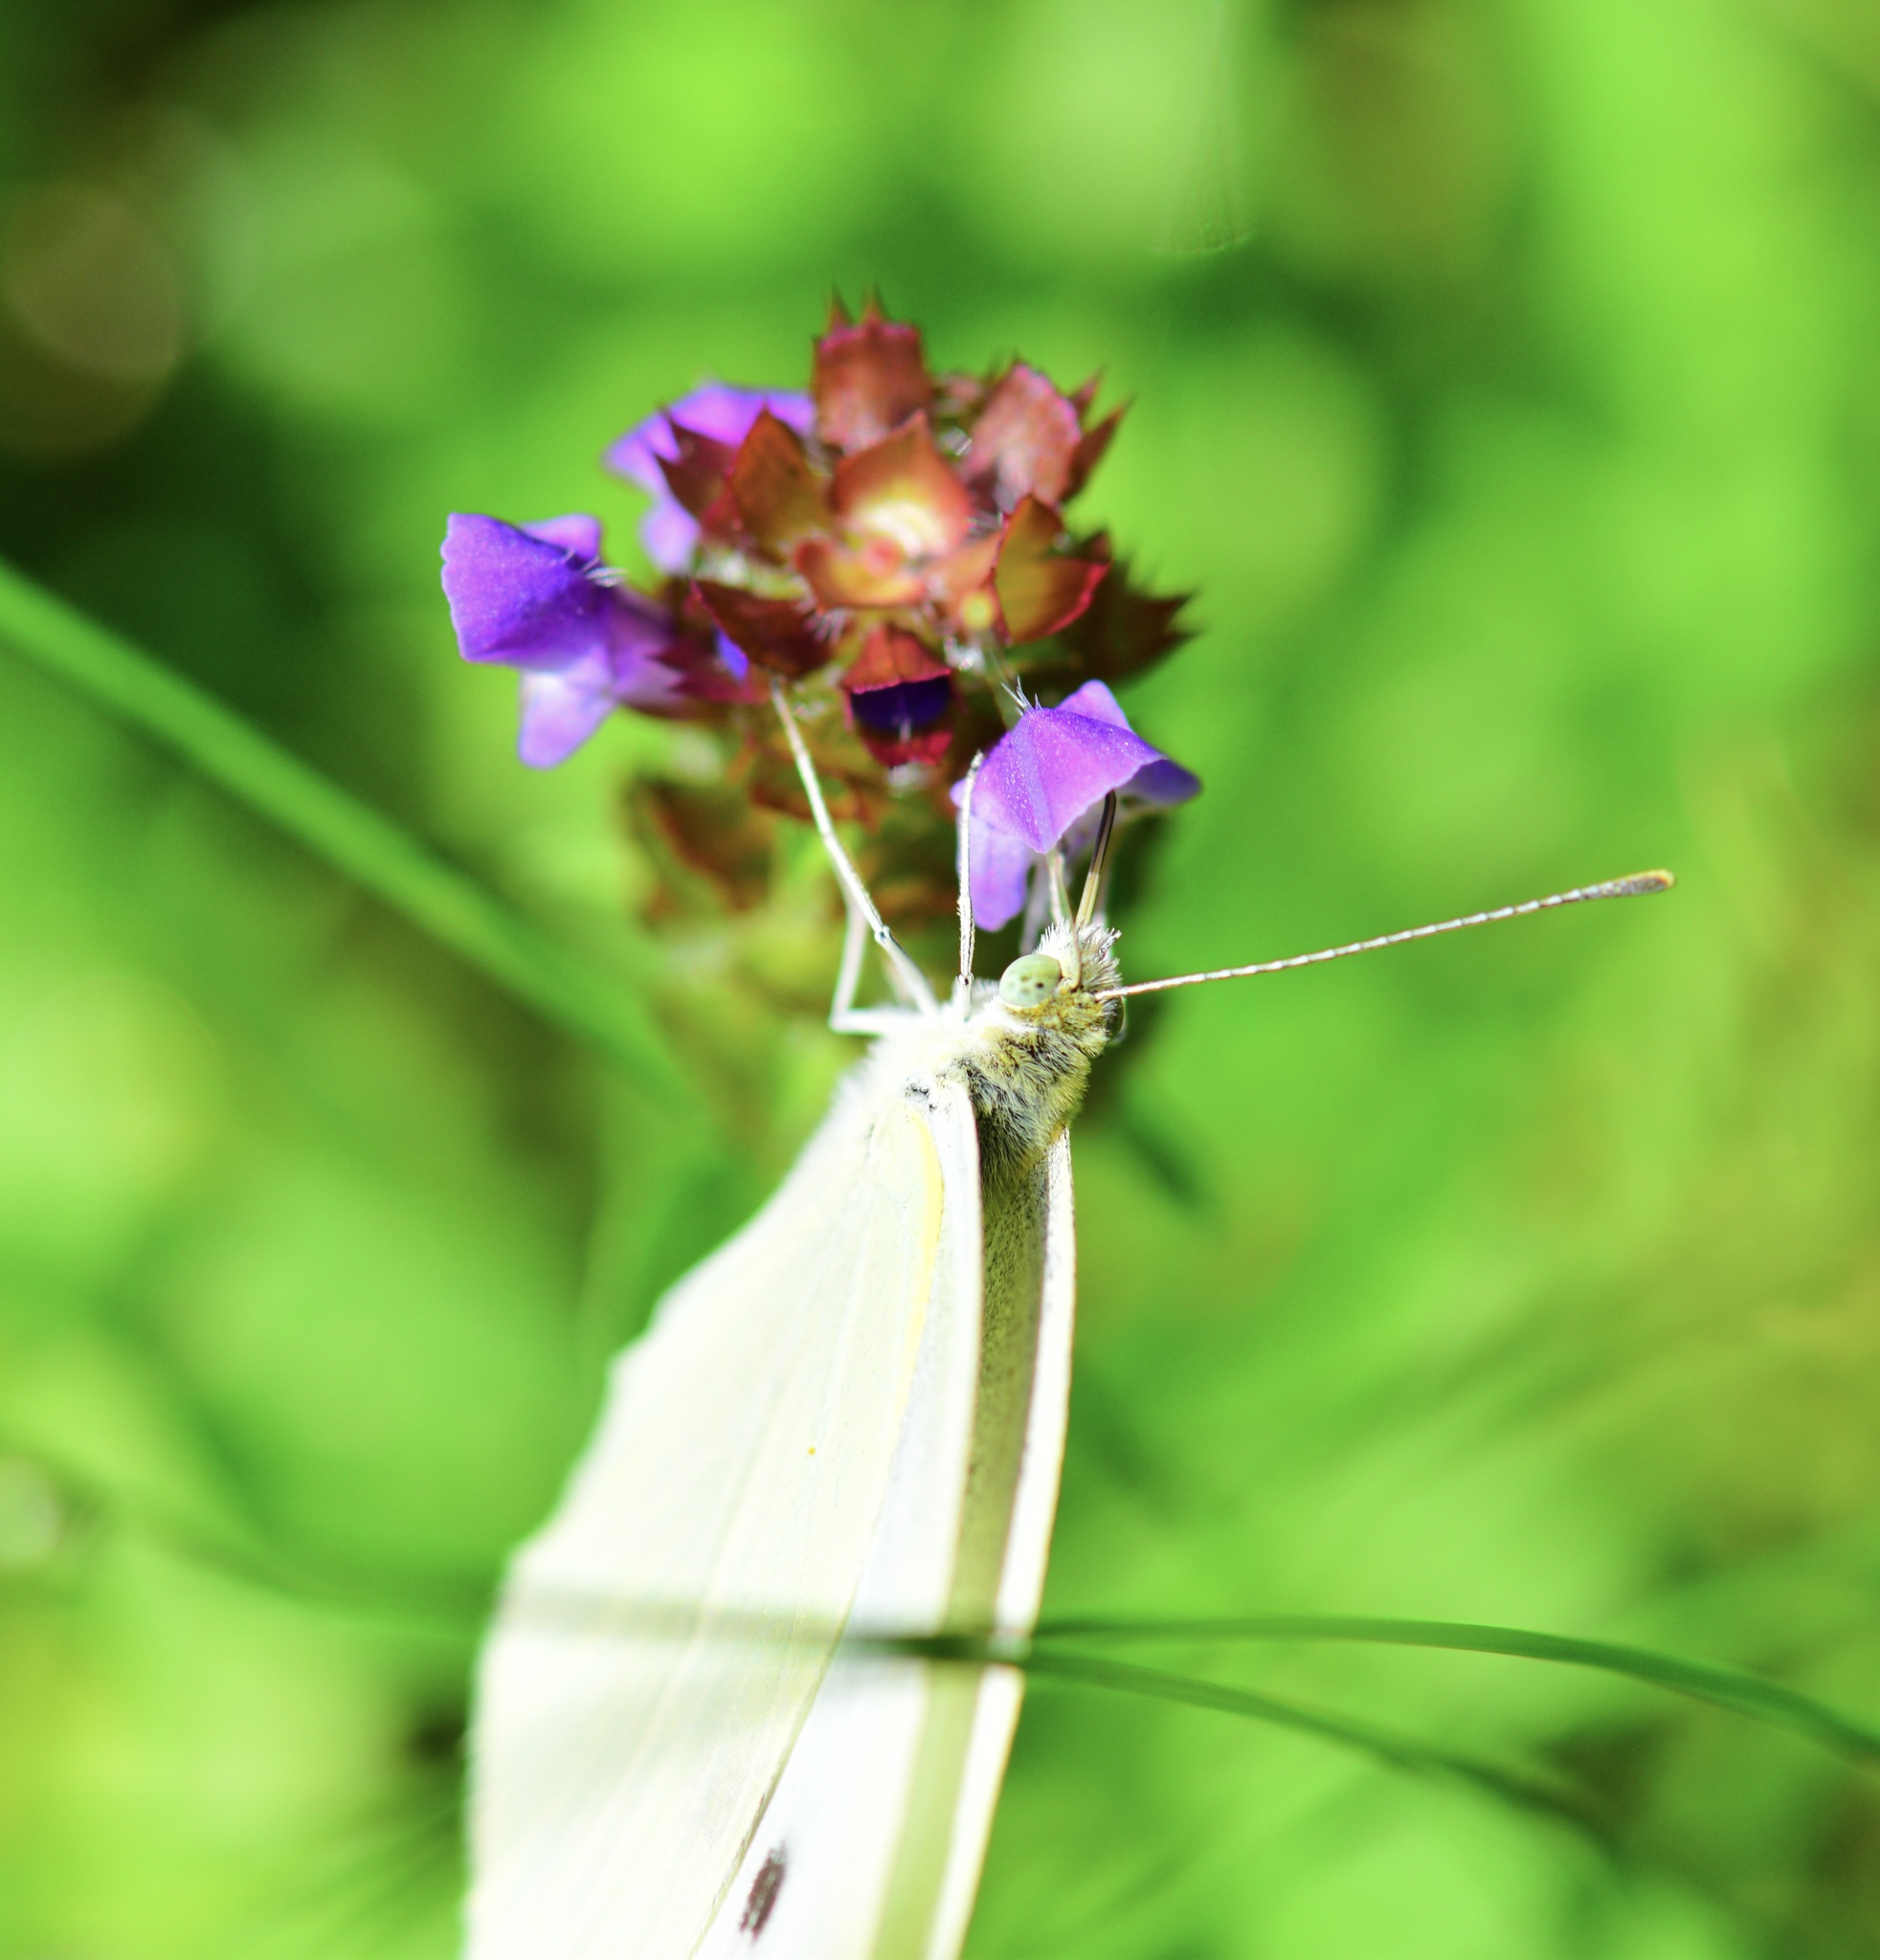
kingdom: Animalia
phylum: Arthropoda
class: Insecta
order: Lepidoptera
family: Pieridae
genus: Pieris
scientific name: Pieris rapae
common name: Small white
